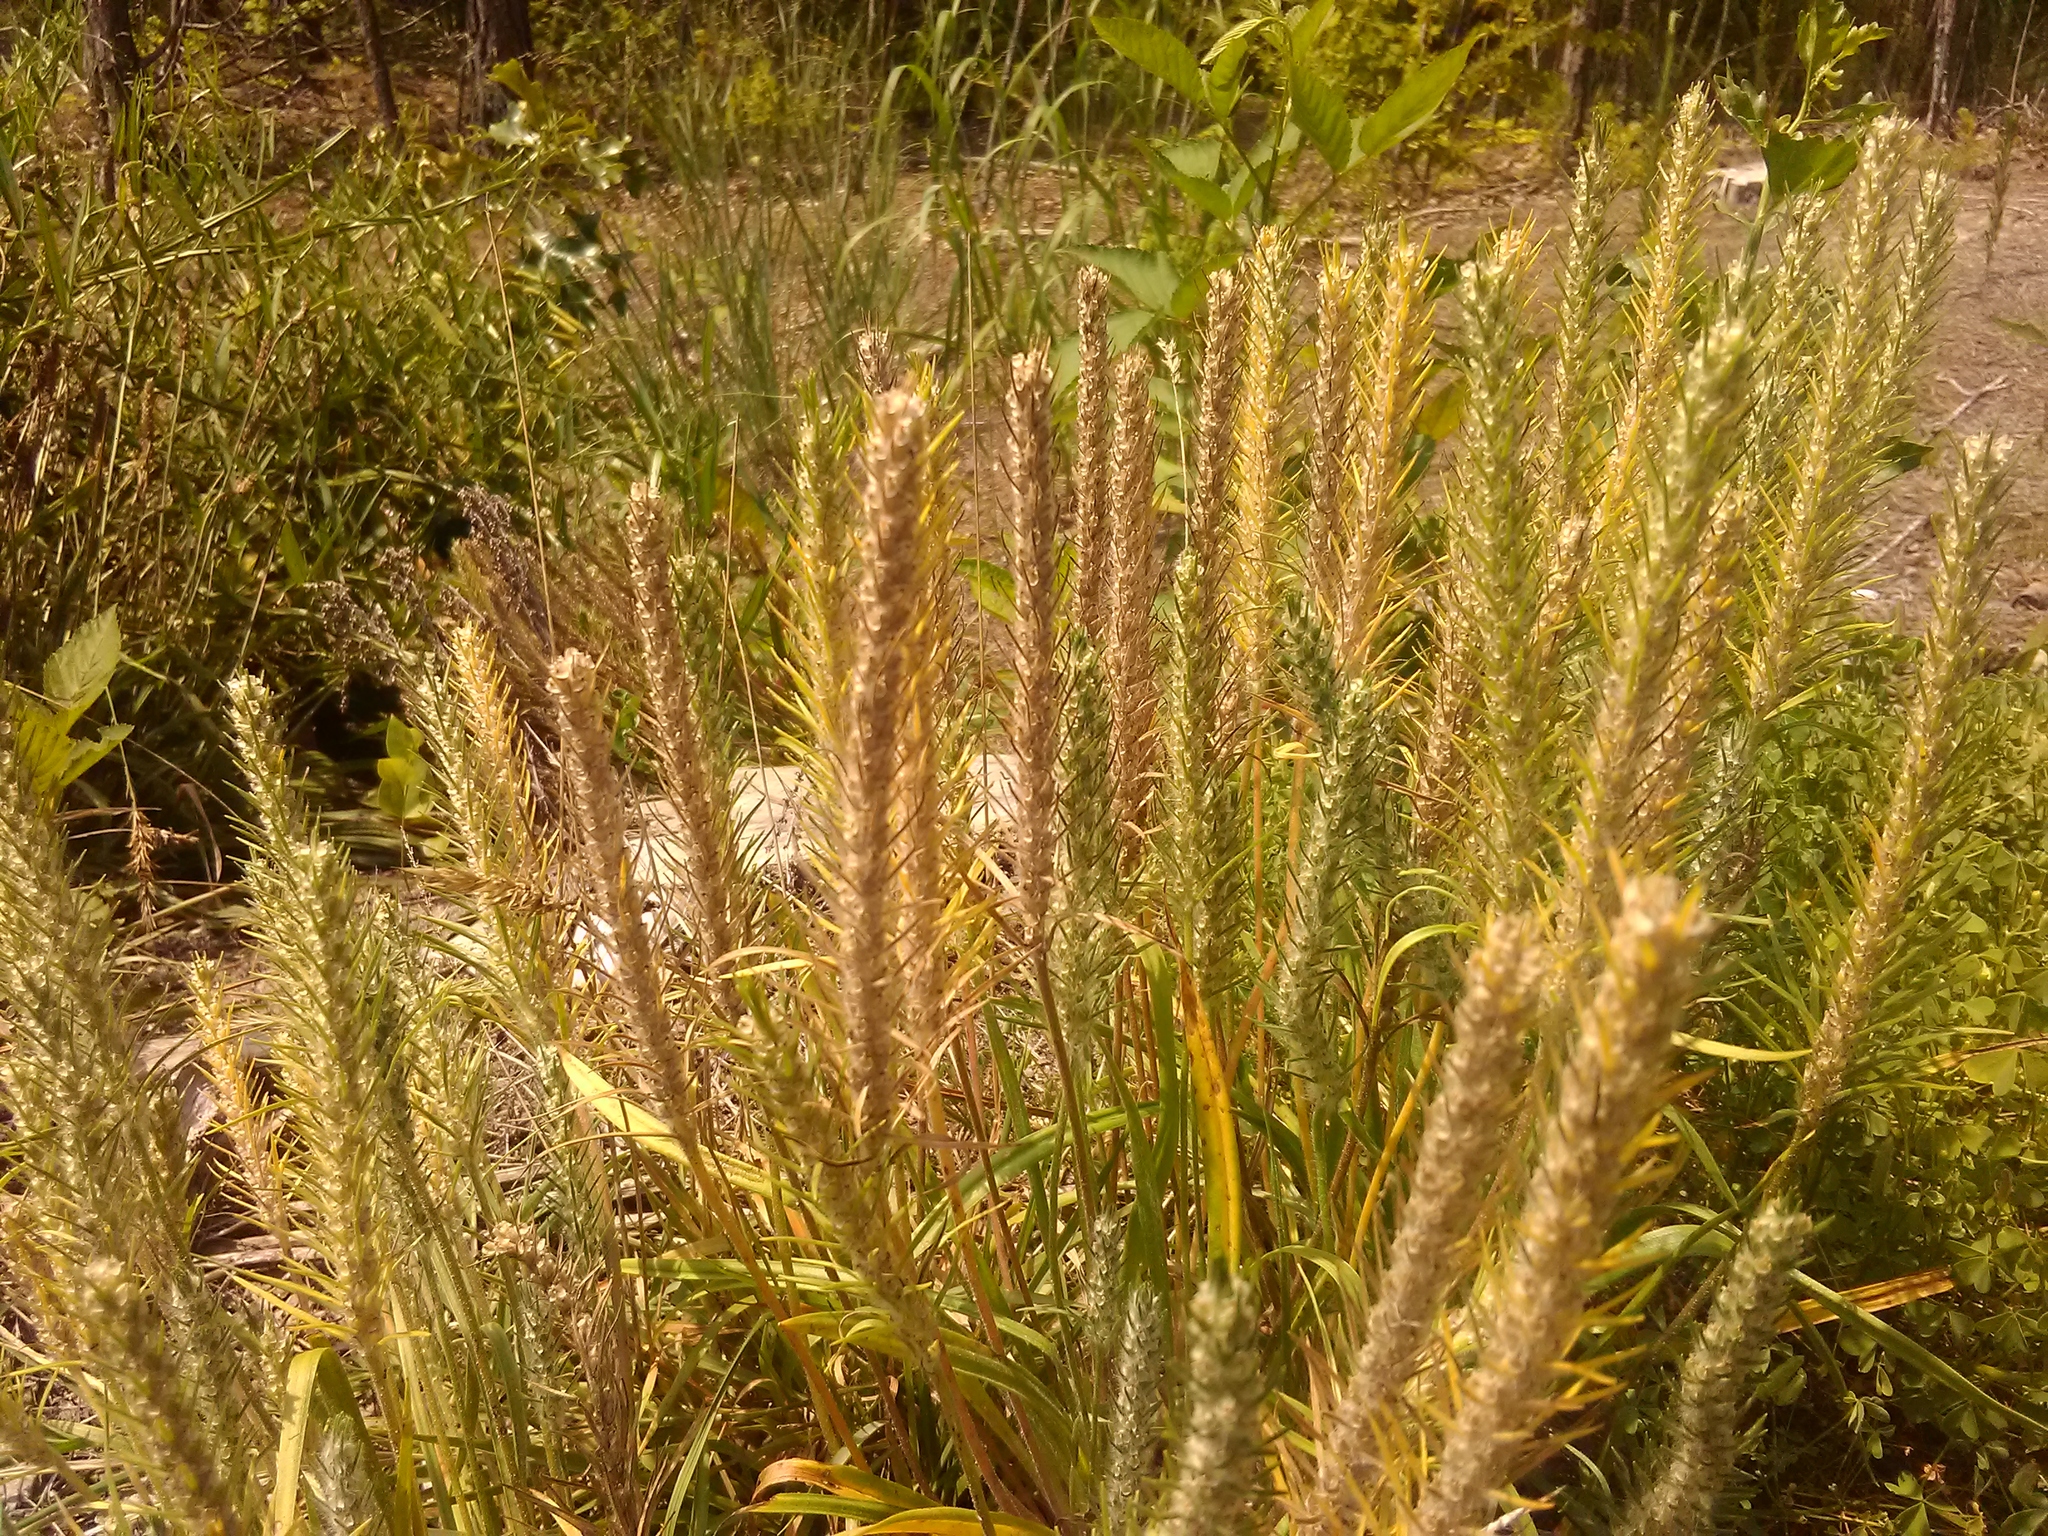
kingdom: Plantae
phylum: Tracheophyta
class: Magnoliopsida
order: Lamiales
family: Plantaginaceae
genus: Plantago
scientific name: Plantago aristata
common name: Bracted plantain
